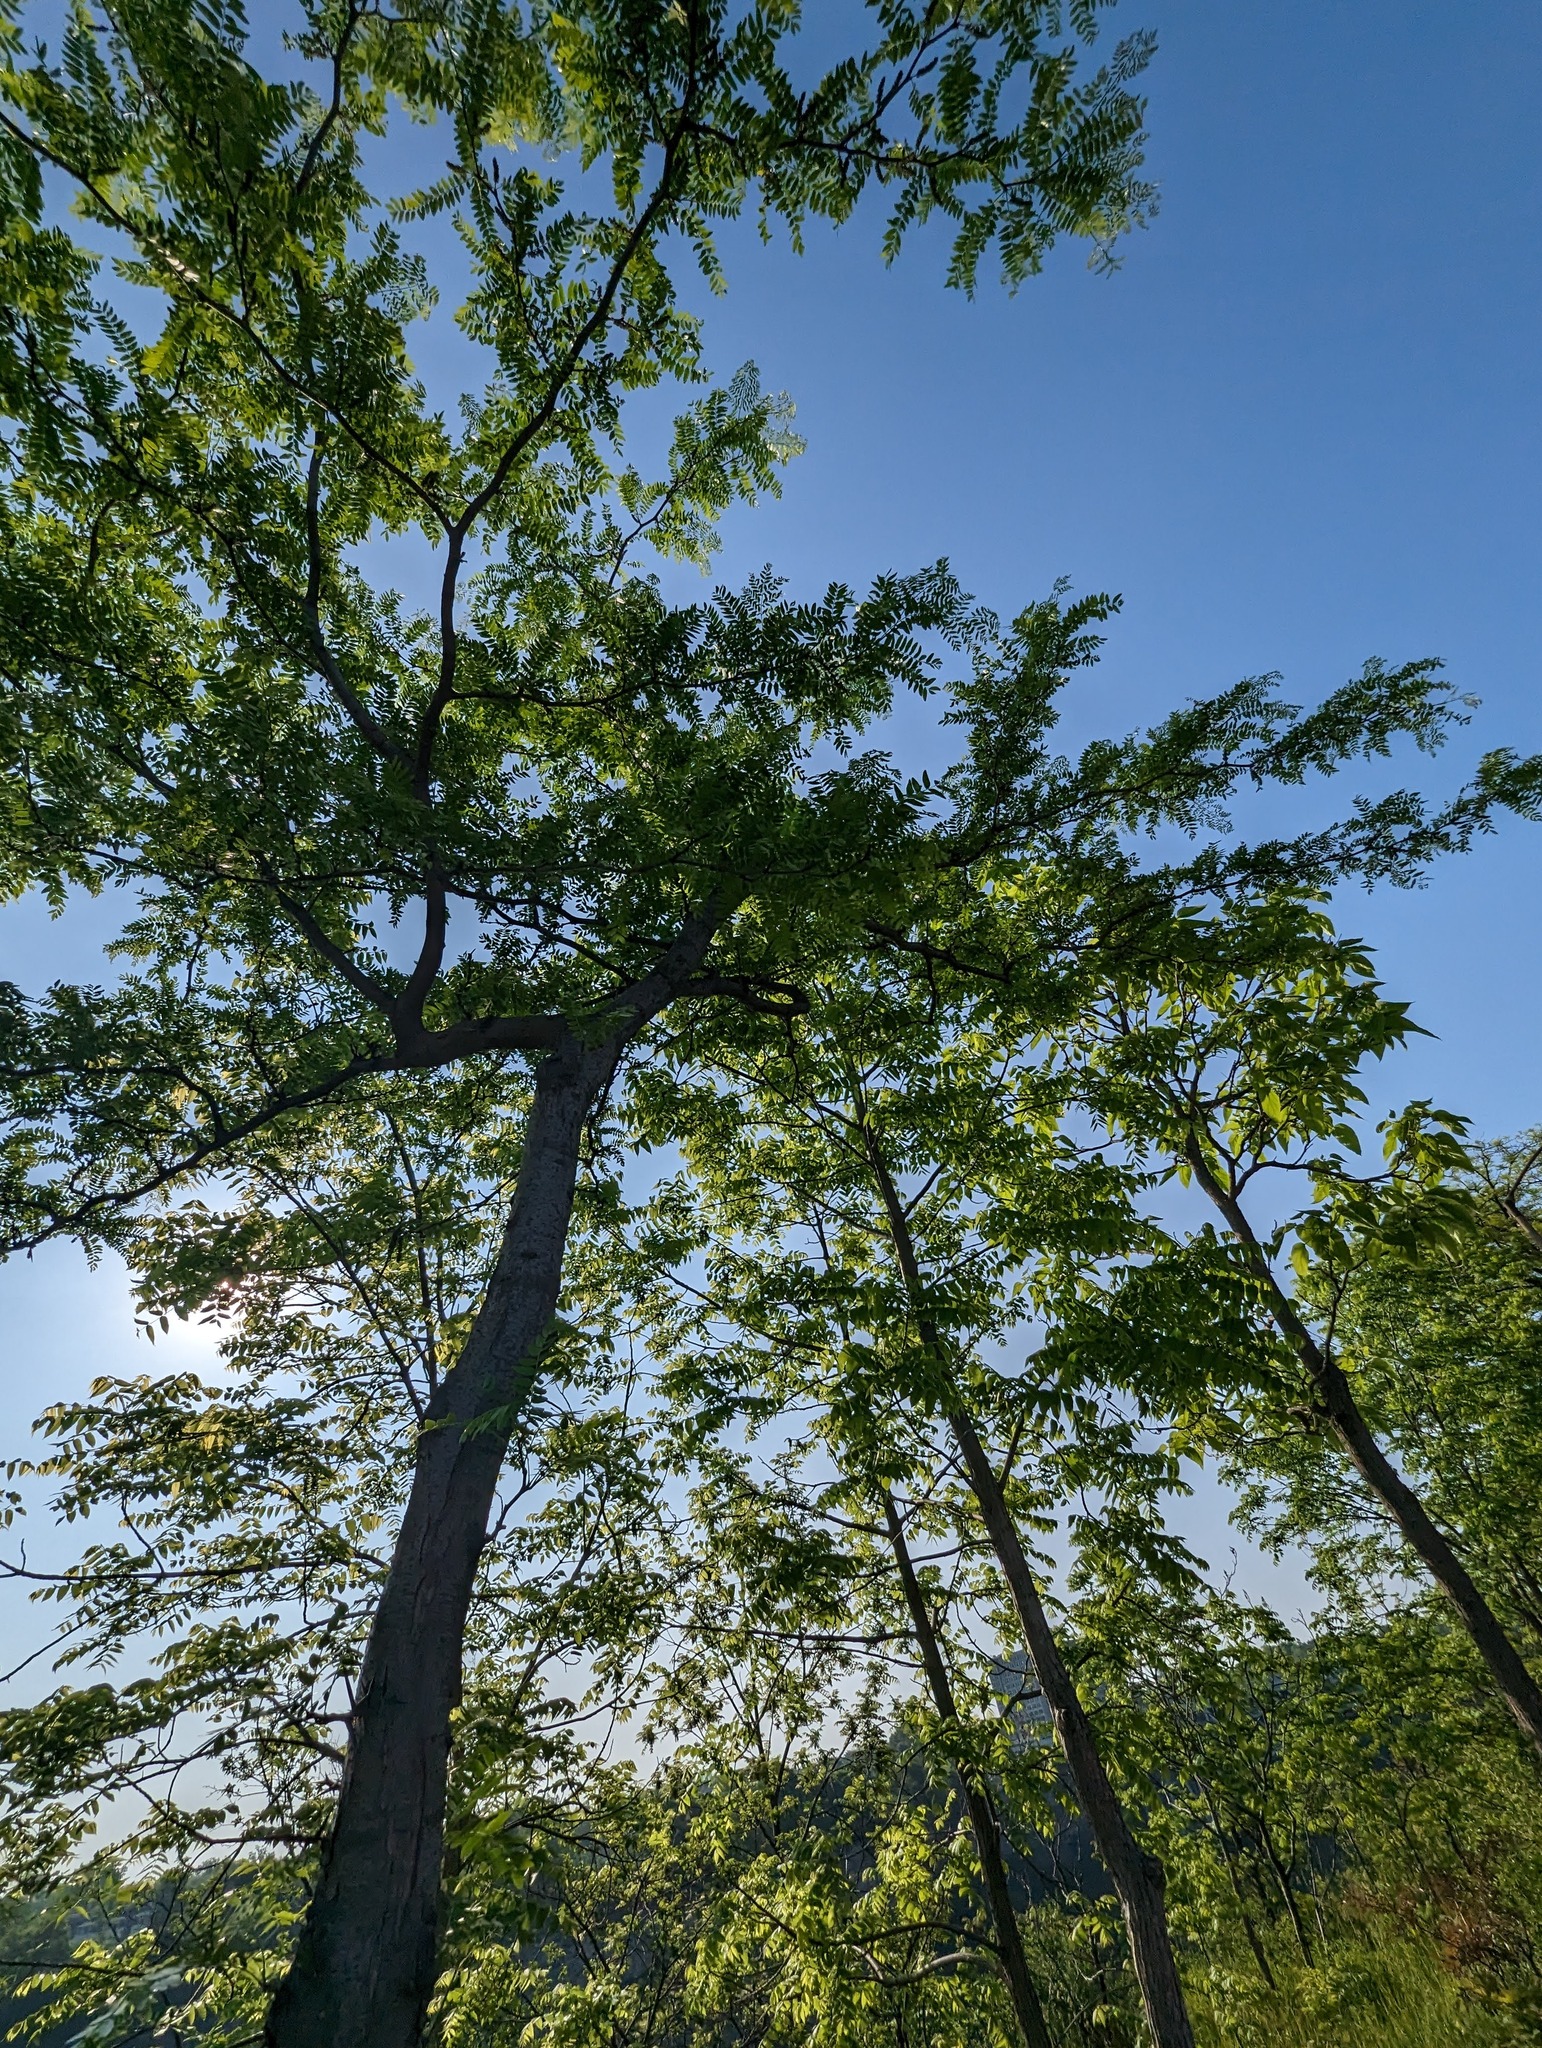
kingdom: Plantae
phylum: Tracheophyta
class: Magnoliopsida
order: Fabales
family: Fabaceae
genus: Gleditsia
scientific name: Gleditsia triacanthos
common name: Common honeylocust
